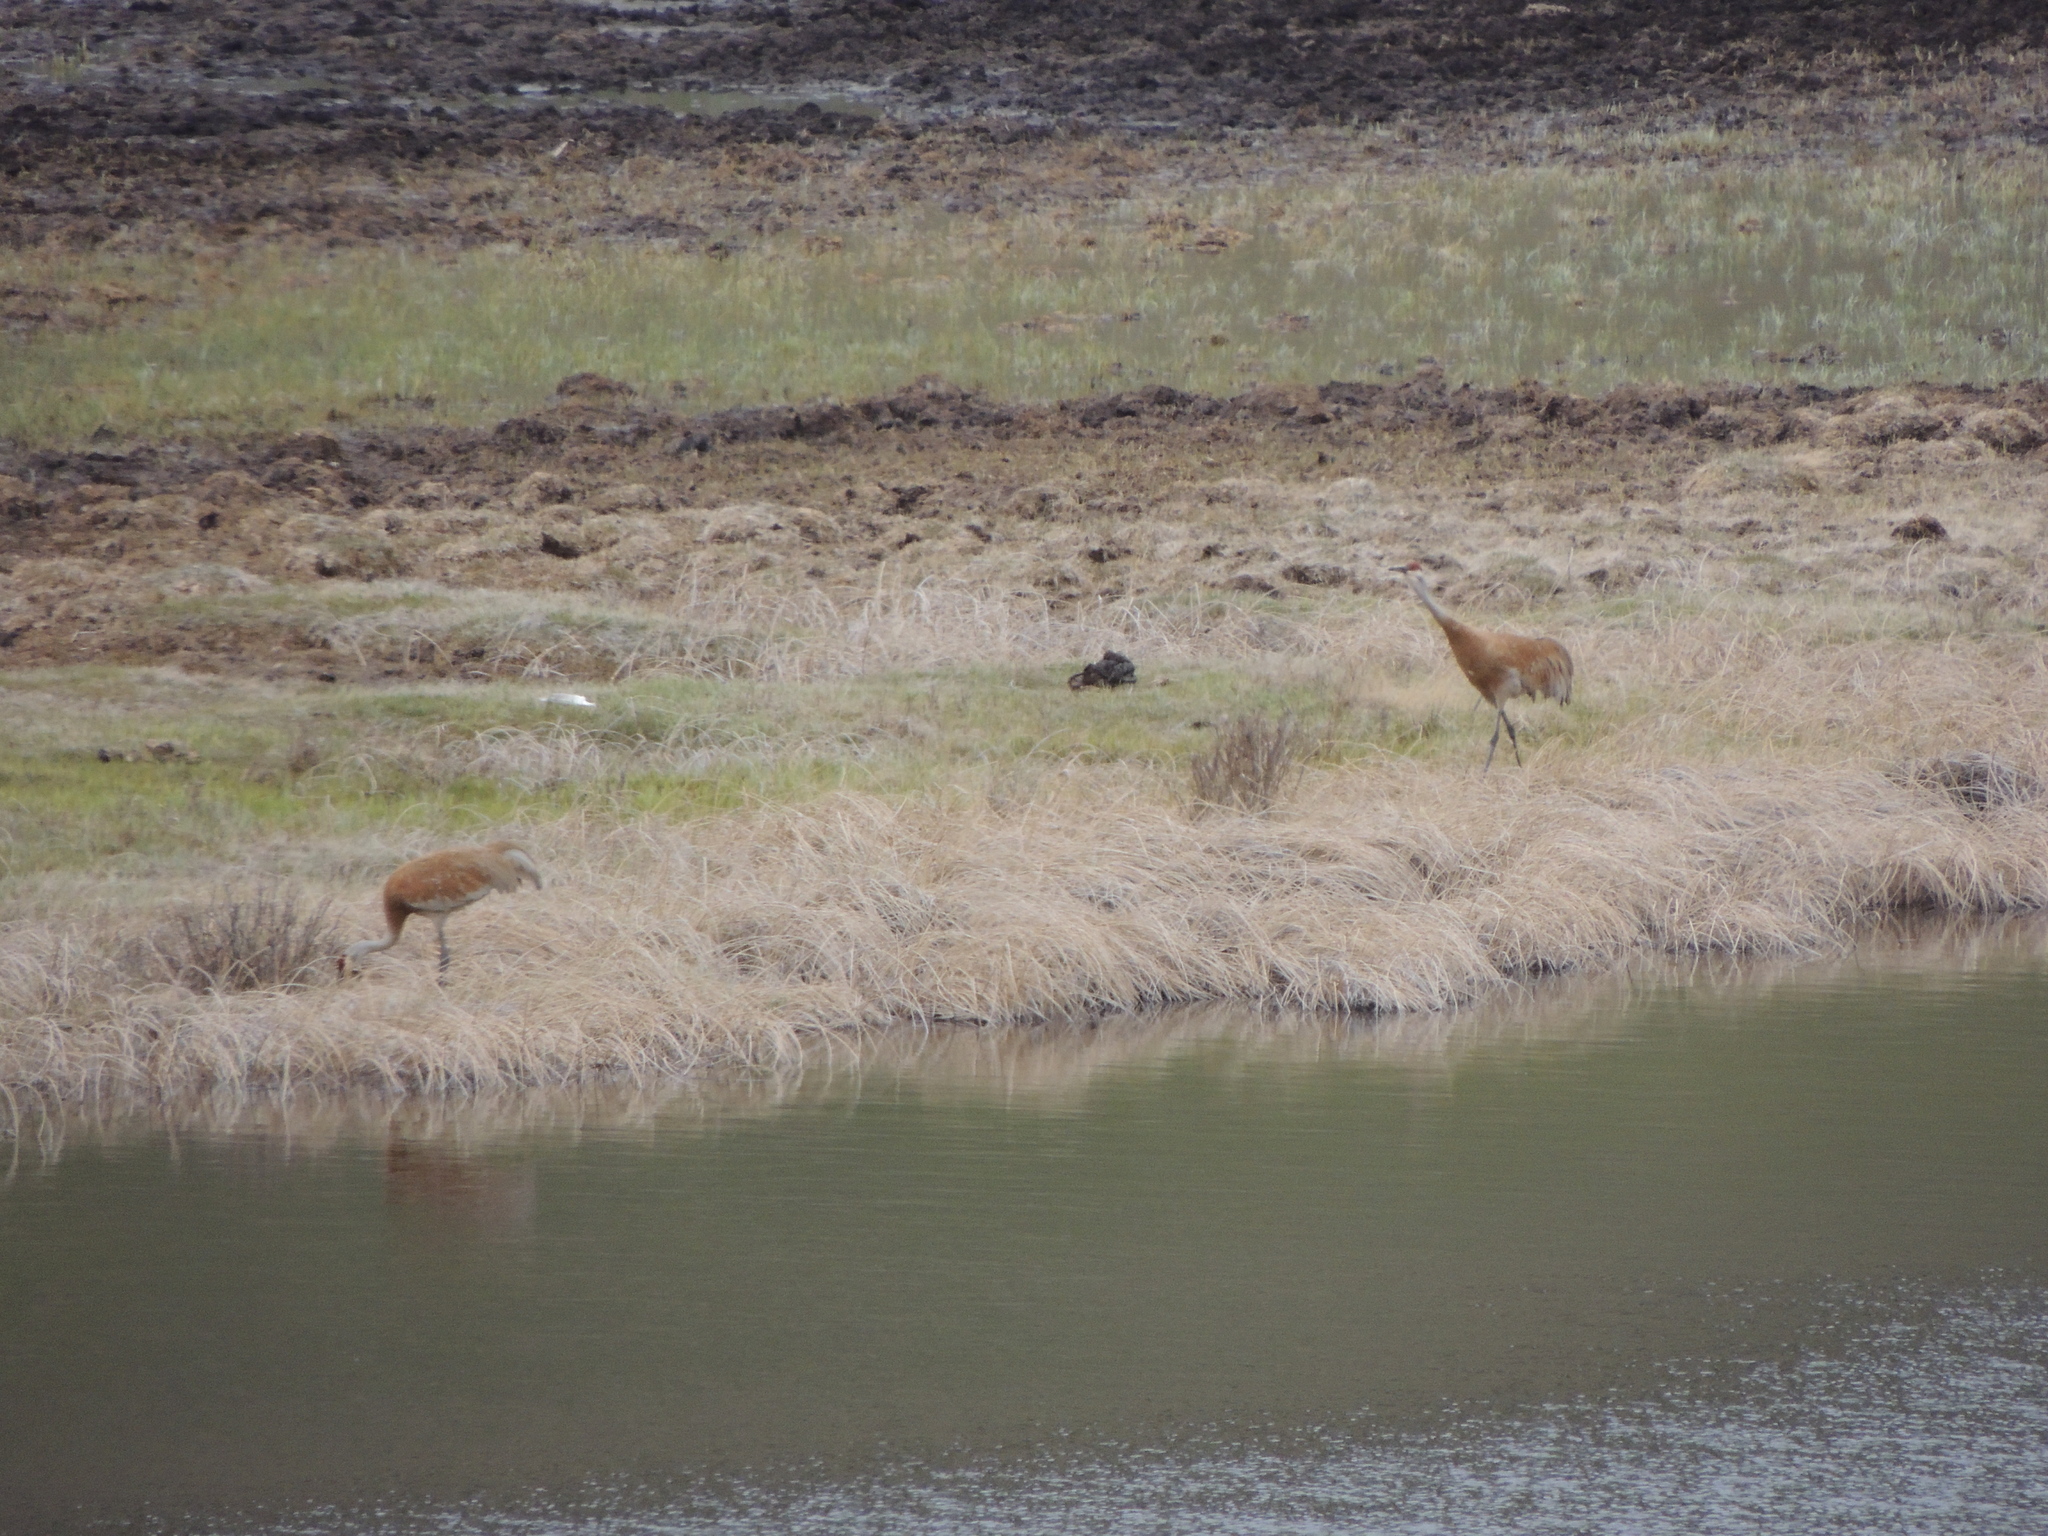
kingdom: Animalia
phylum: Chordata
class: Aves
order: Gruiformes
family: Gruidae
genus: Grus
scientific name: Grus canadensis
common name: Sandhill crane
